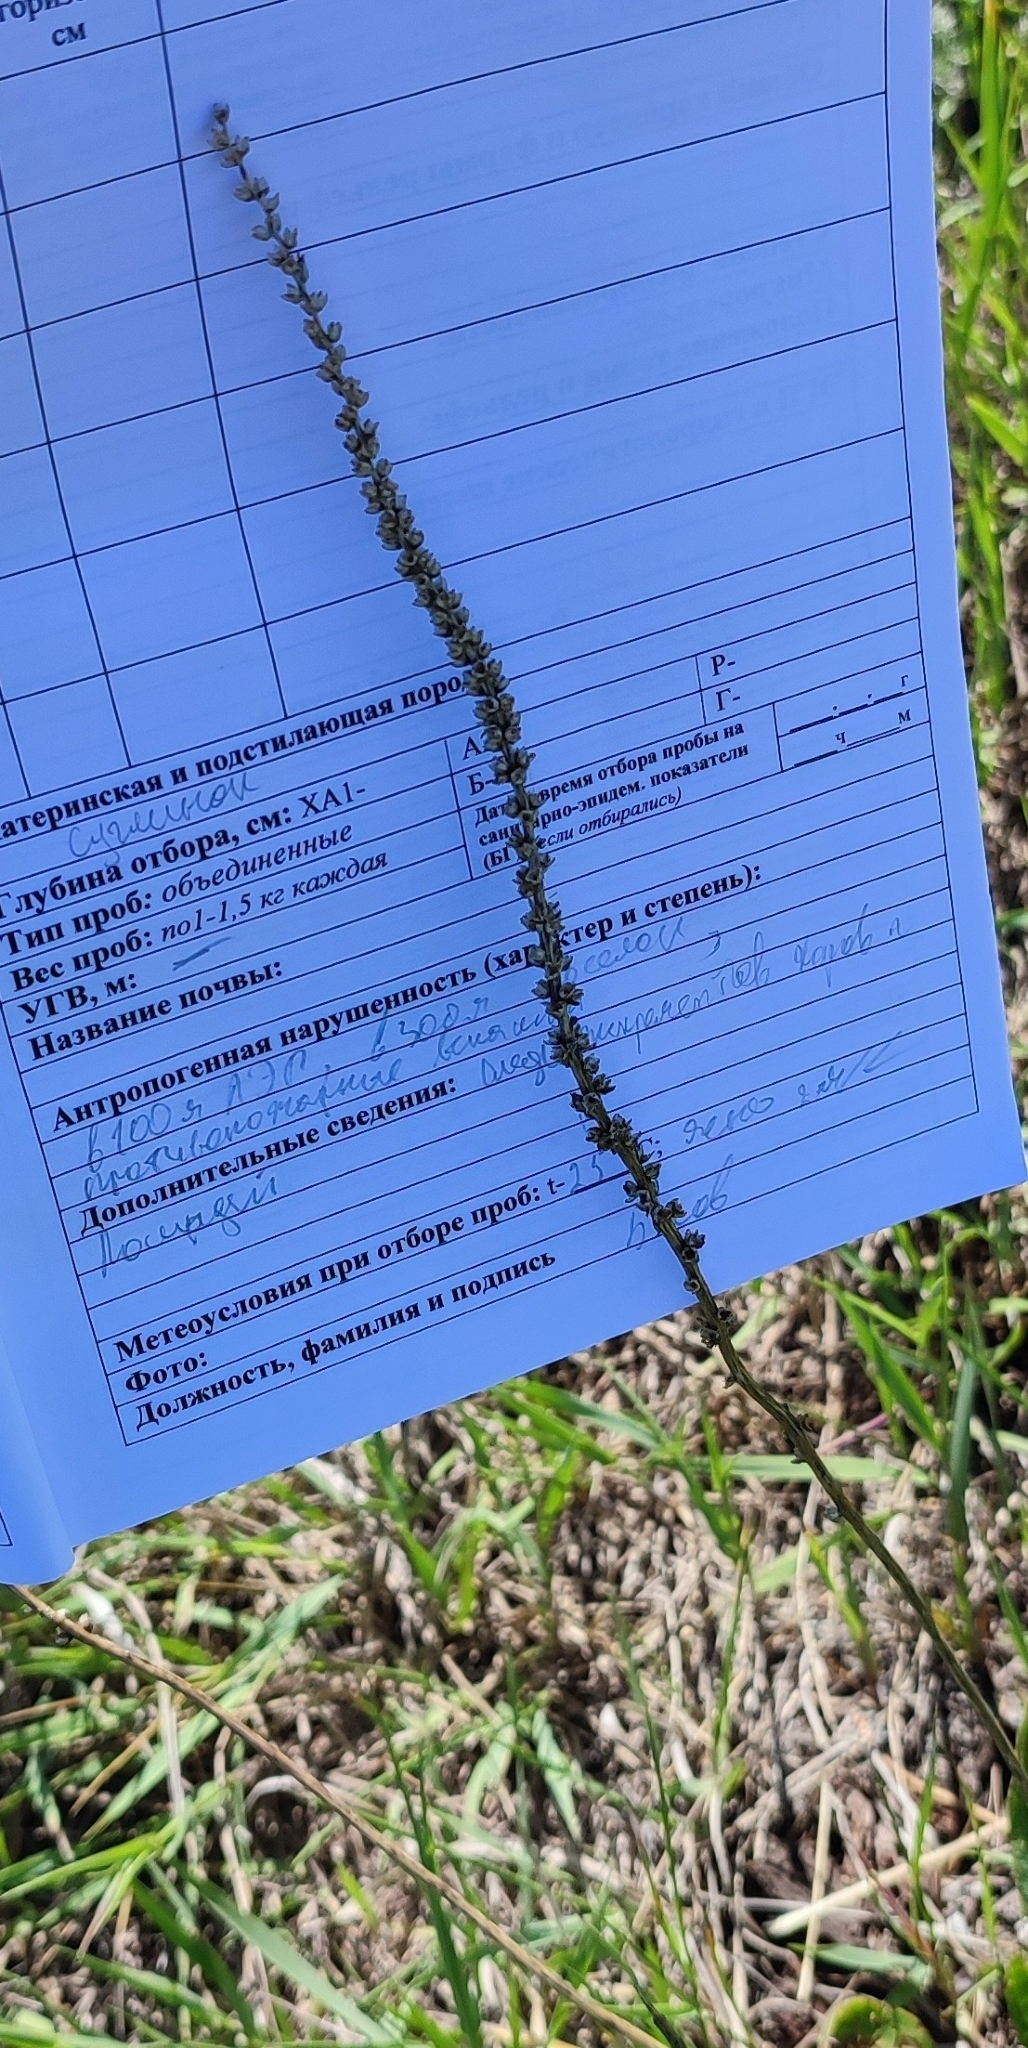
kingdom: Plantae
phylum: Tracheophyta
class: Magnoliopsida
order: Lamiales
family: Plantaginaceae
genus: Plantago
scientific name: Plantago cornuti
